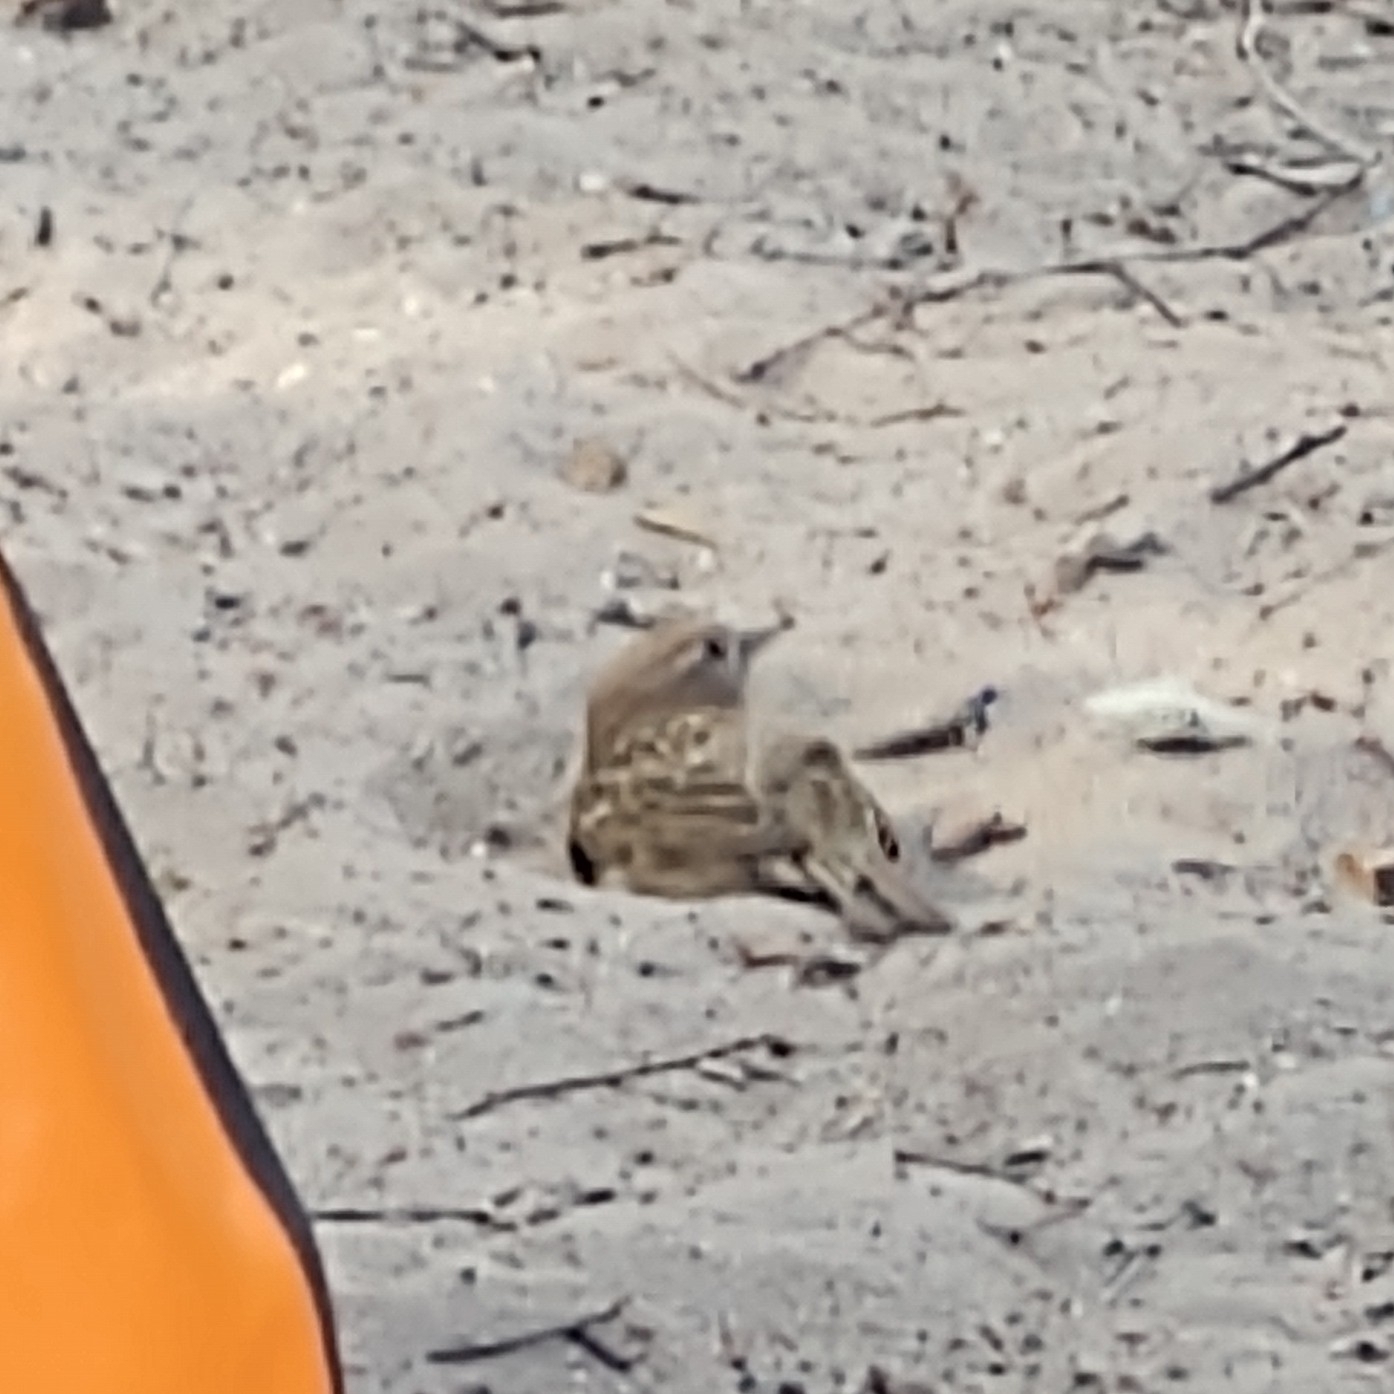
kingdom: Animalia
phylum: Chordata
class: Aves
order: Passeriformes
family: Passeridae
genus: Passer
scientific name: Passer domesticus
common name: House sparrow
